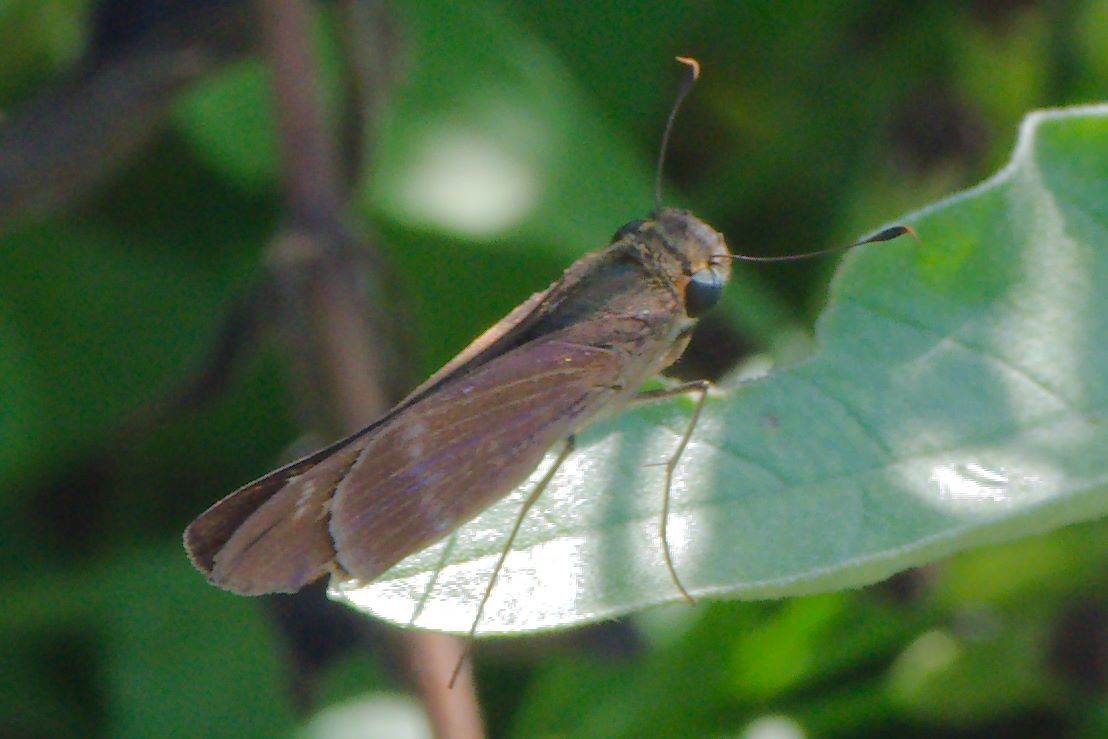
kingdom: Animalia
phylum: Arthropoda
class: Insecta
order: Lepidoptera
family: Hesperiidae
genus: Turesis
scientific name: Turesis lucas
